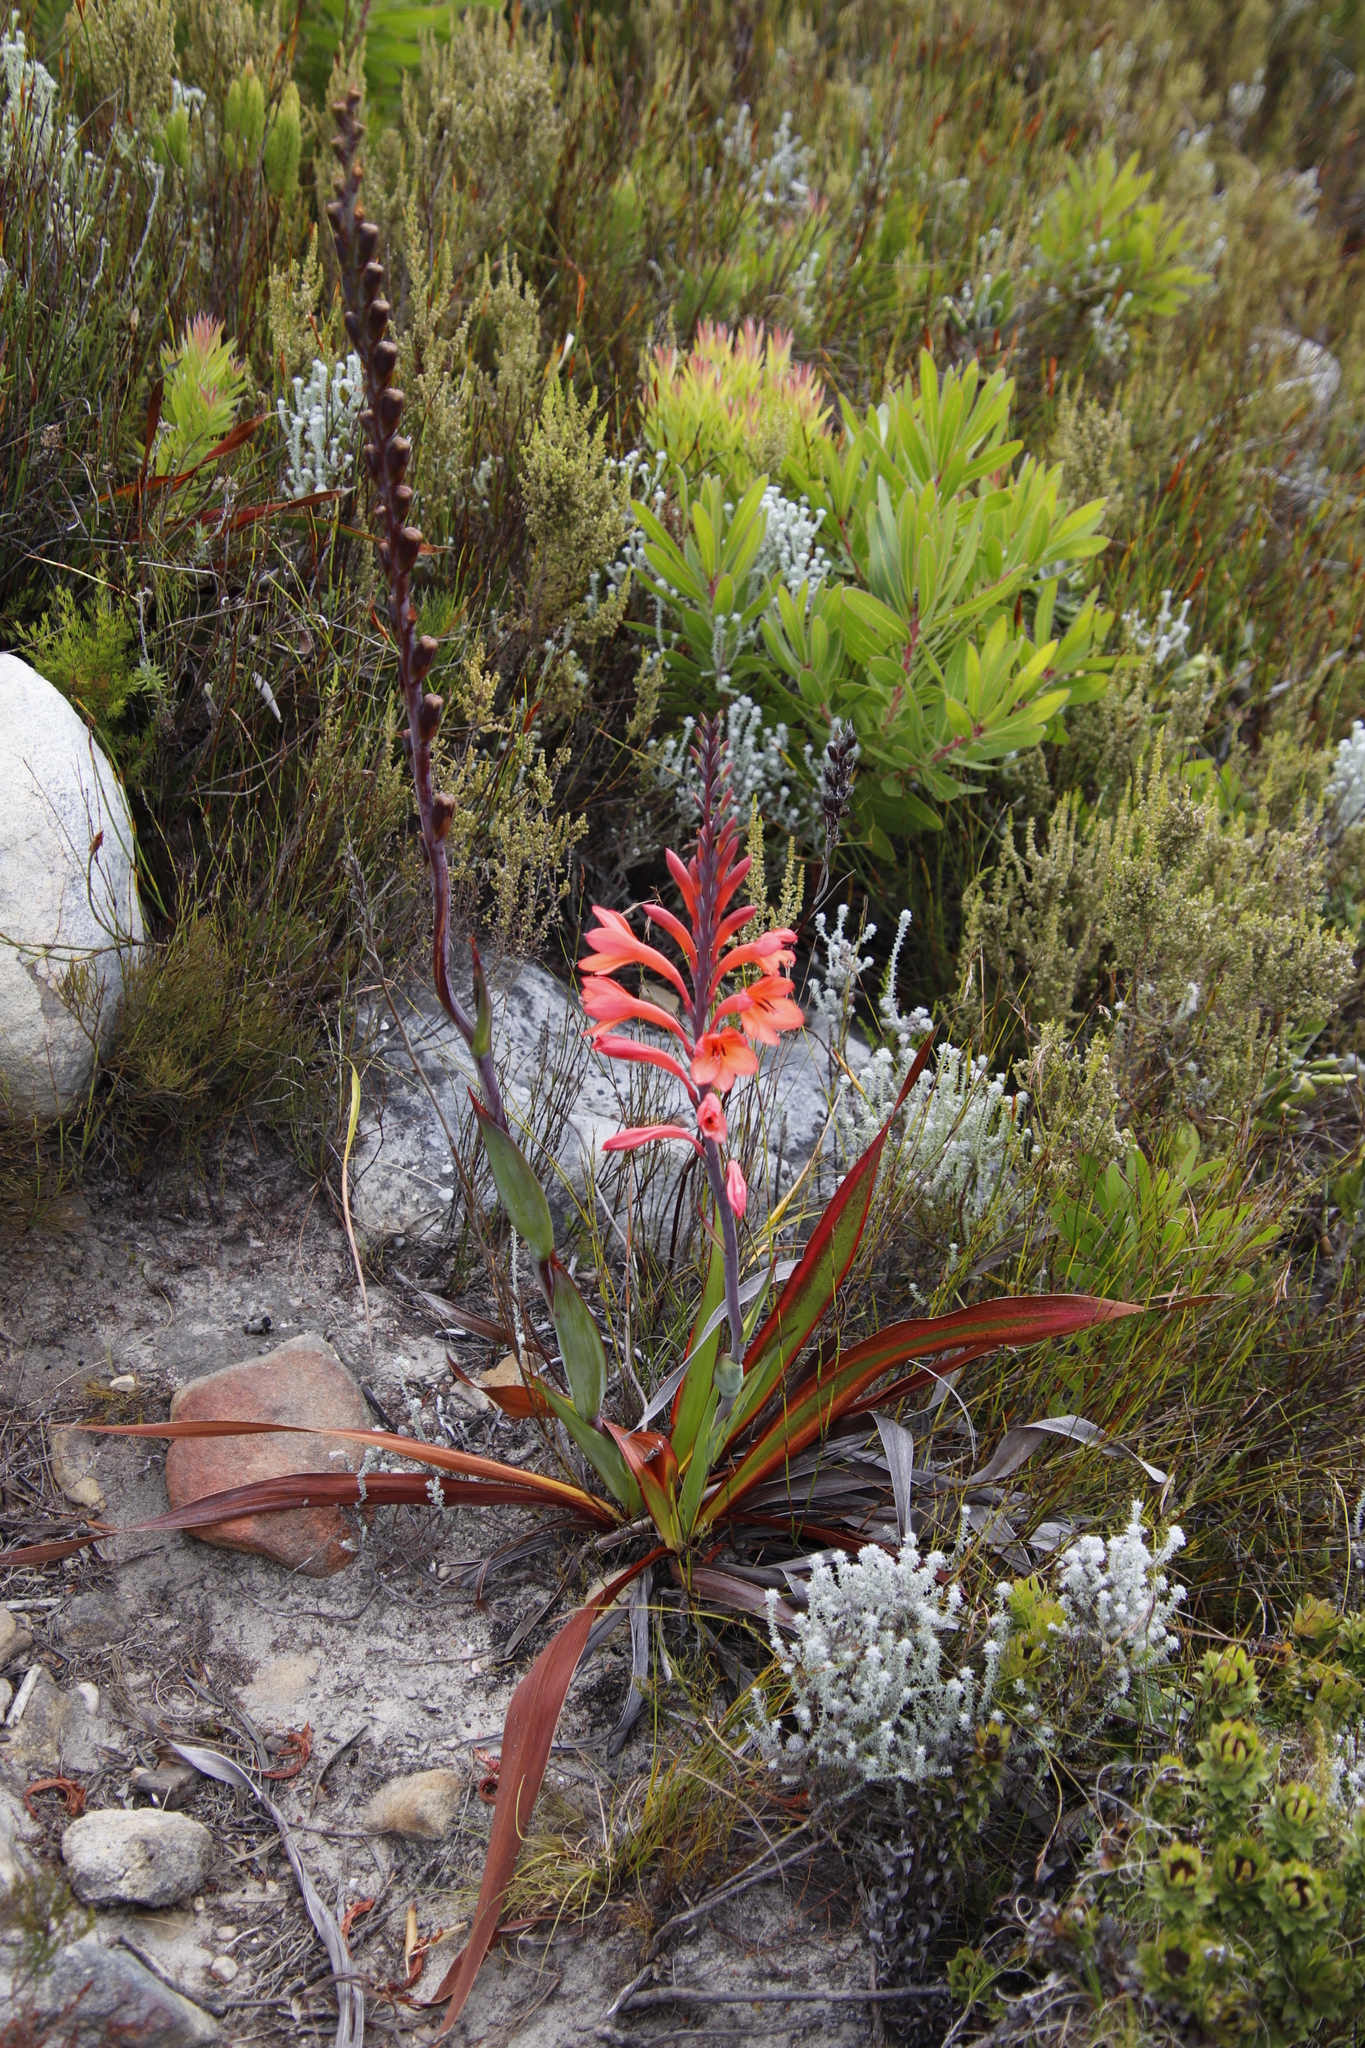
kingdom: Plantae
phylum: Tracheophyta
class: Liliopsida
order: Asparagales
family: Iridaceae
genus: Watsonia
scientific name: Watsonia tabularis
